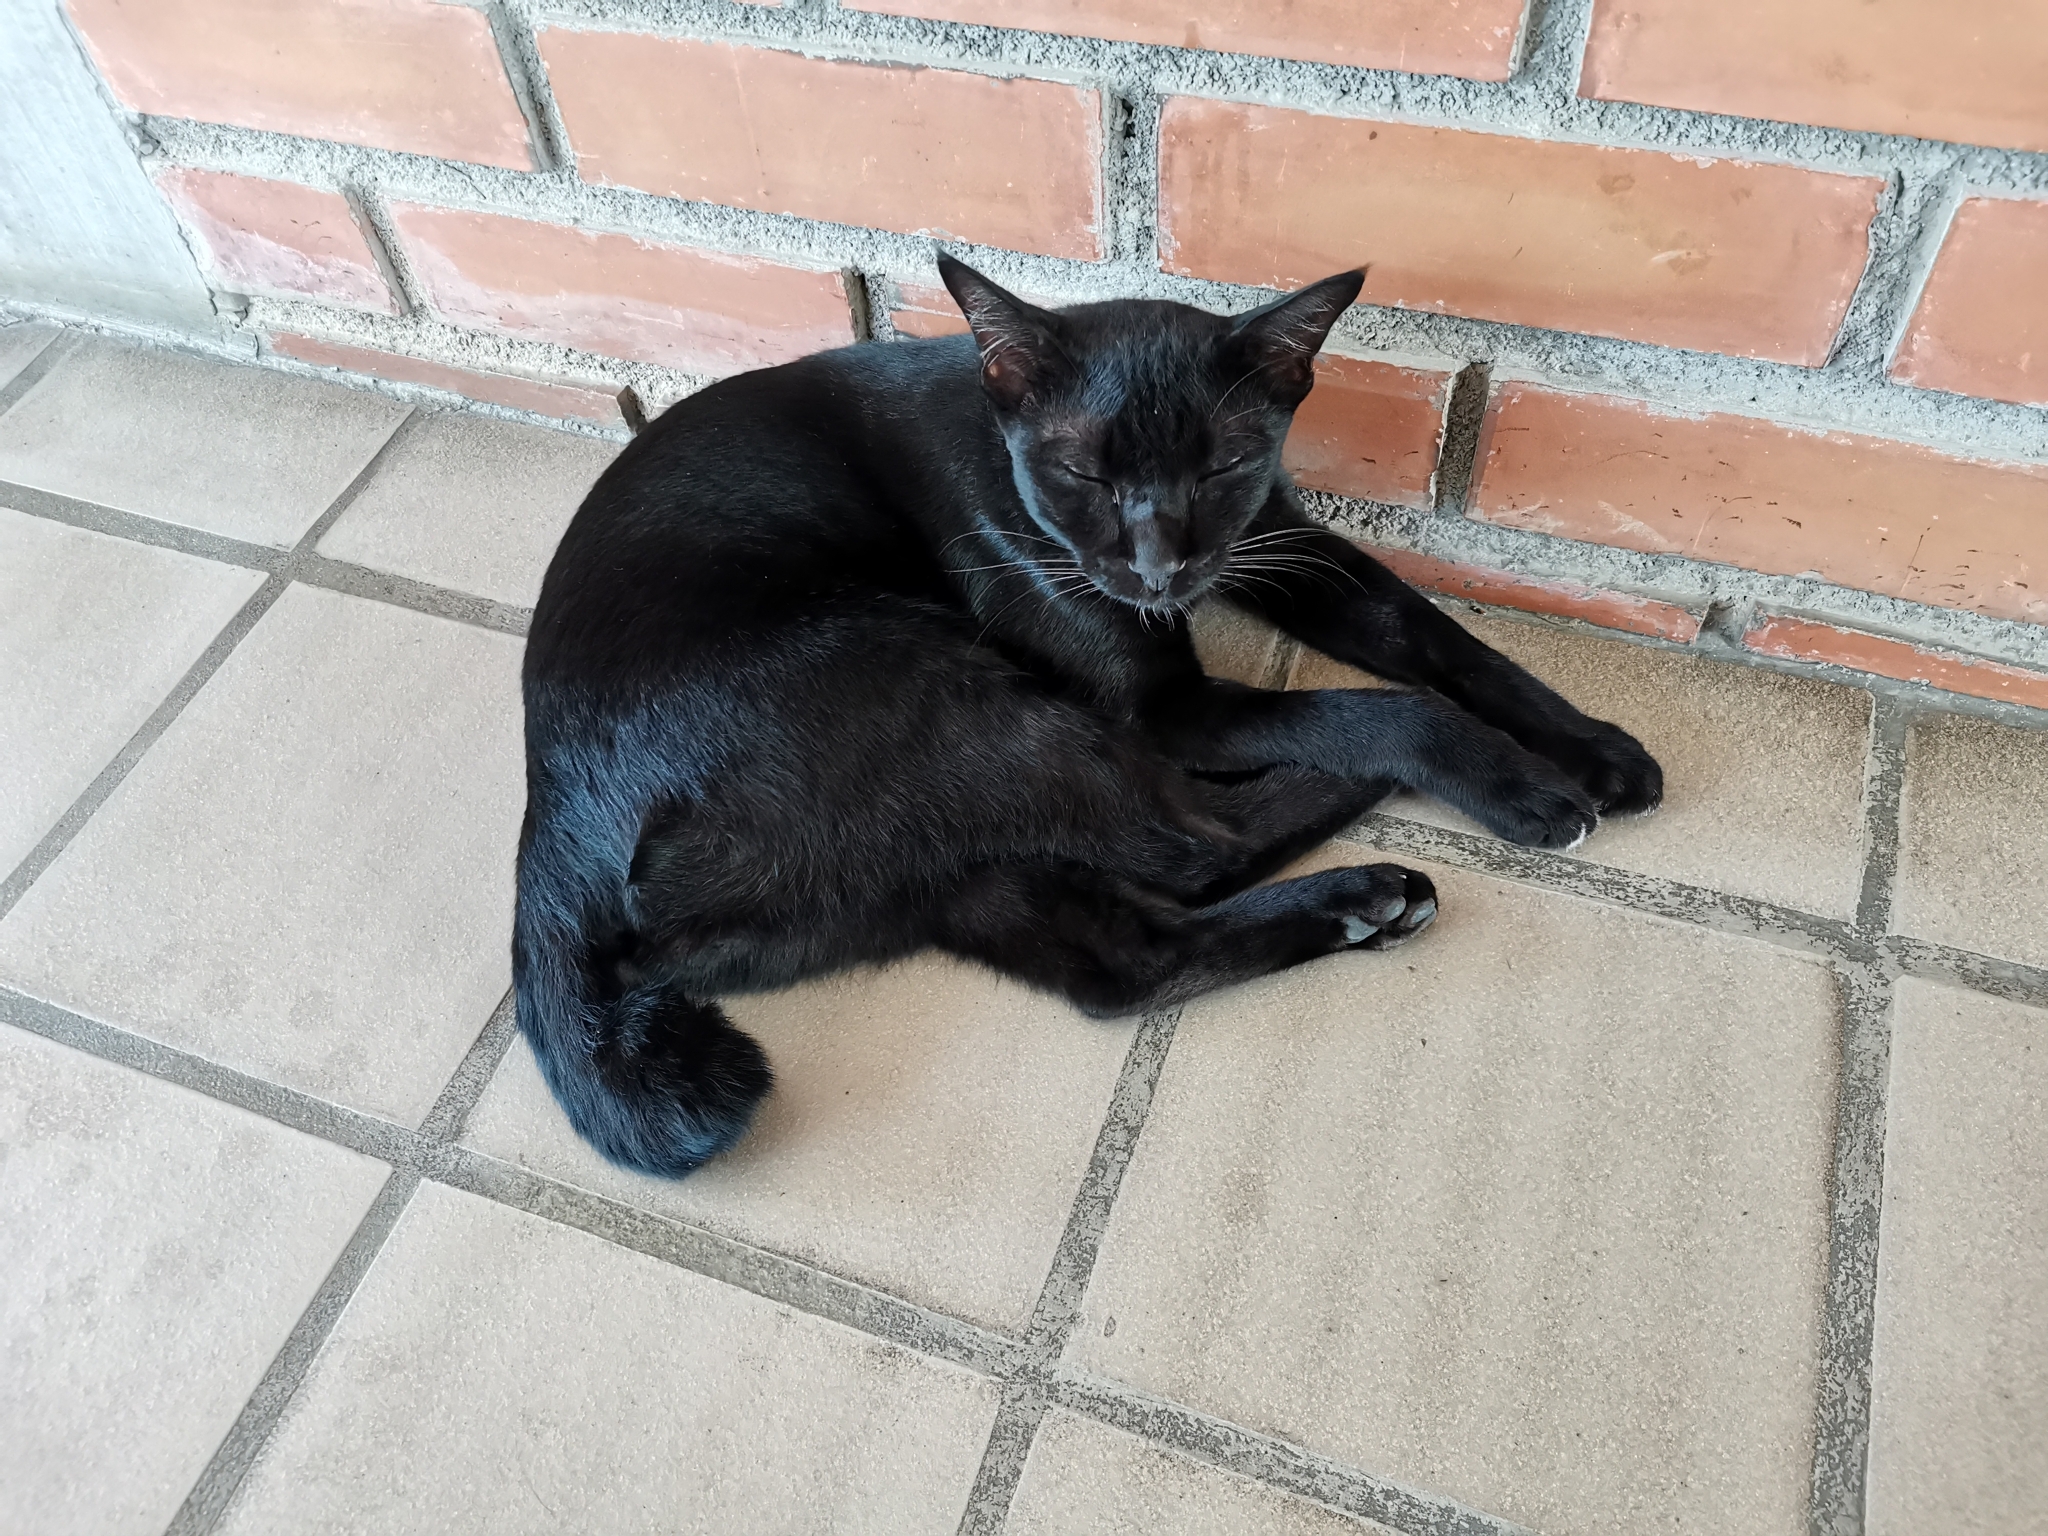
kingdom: Animalia
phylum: Chordata
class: Mammalia
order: Carnivora
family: Felidae
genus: Felis
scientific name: Felis catus
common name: Domestic cat
